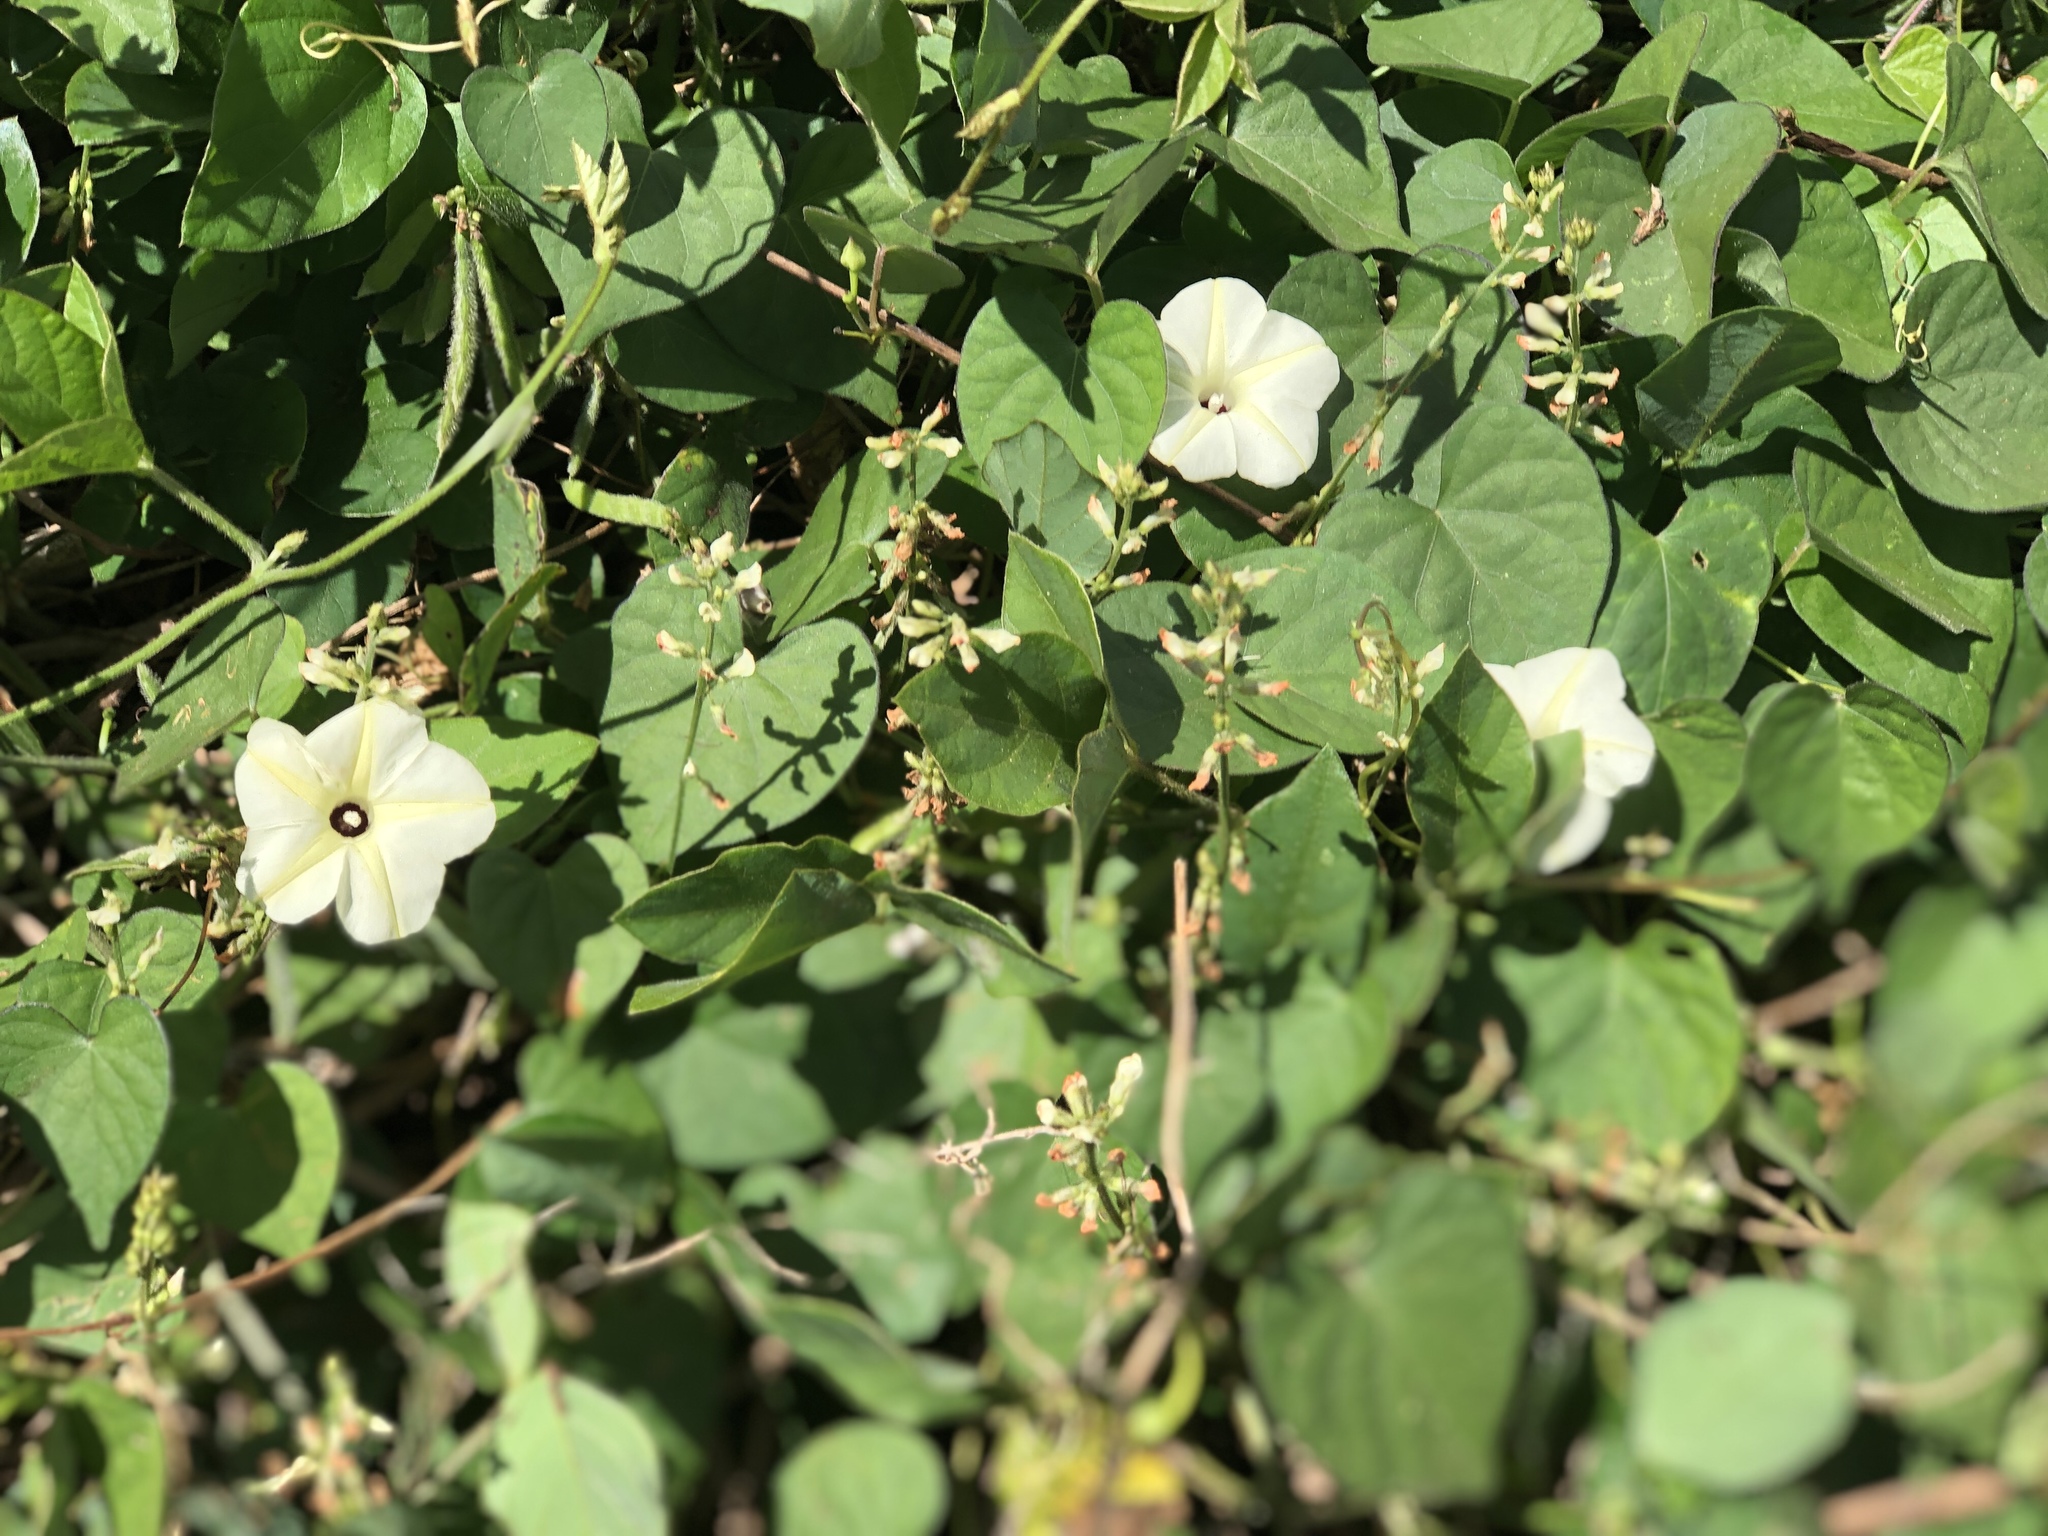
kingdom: Plantae
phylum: Tracheophyta
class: Magnoliopsida
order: Solanales
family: Convolvulaceae
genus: Ipomoea
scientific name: Ipomoea obscura
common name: Obscure morning-glory
